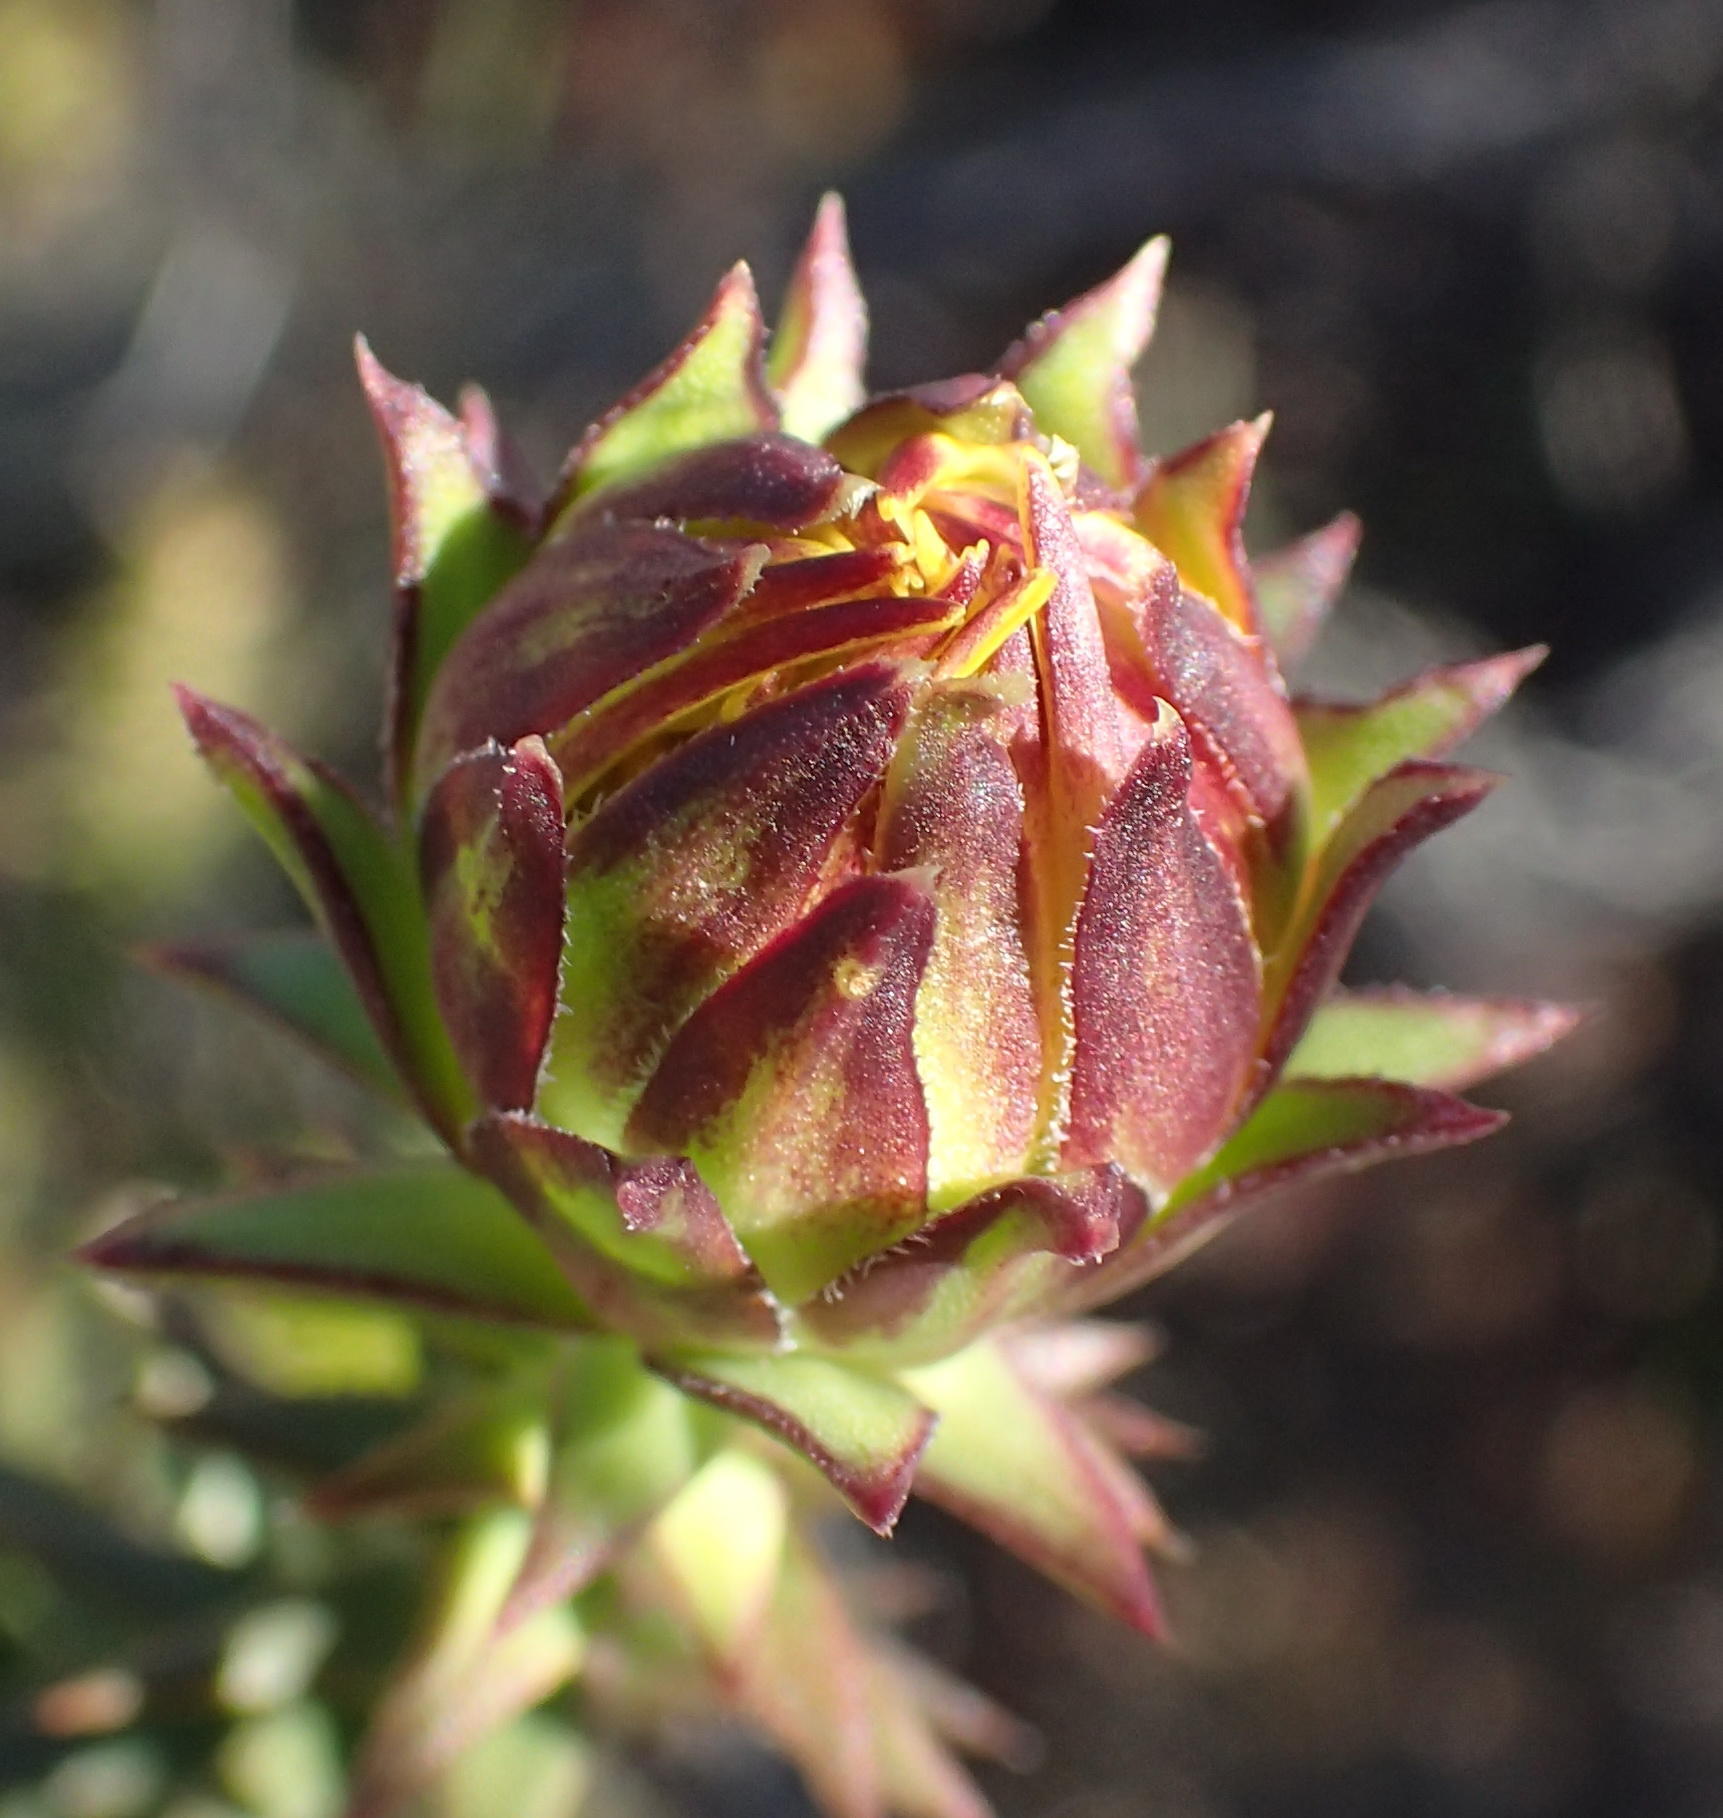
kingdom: Plantae
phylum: Tracheophyta
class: Magnoliopsida
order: Asterales
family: Asteraceae
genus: Oedera
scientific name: Oedera imbricata
